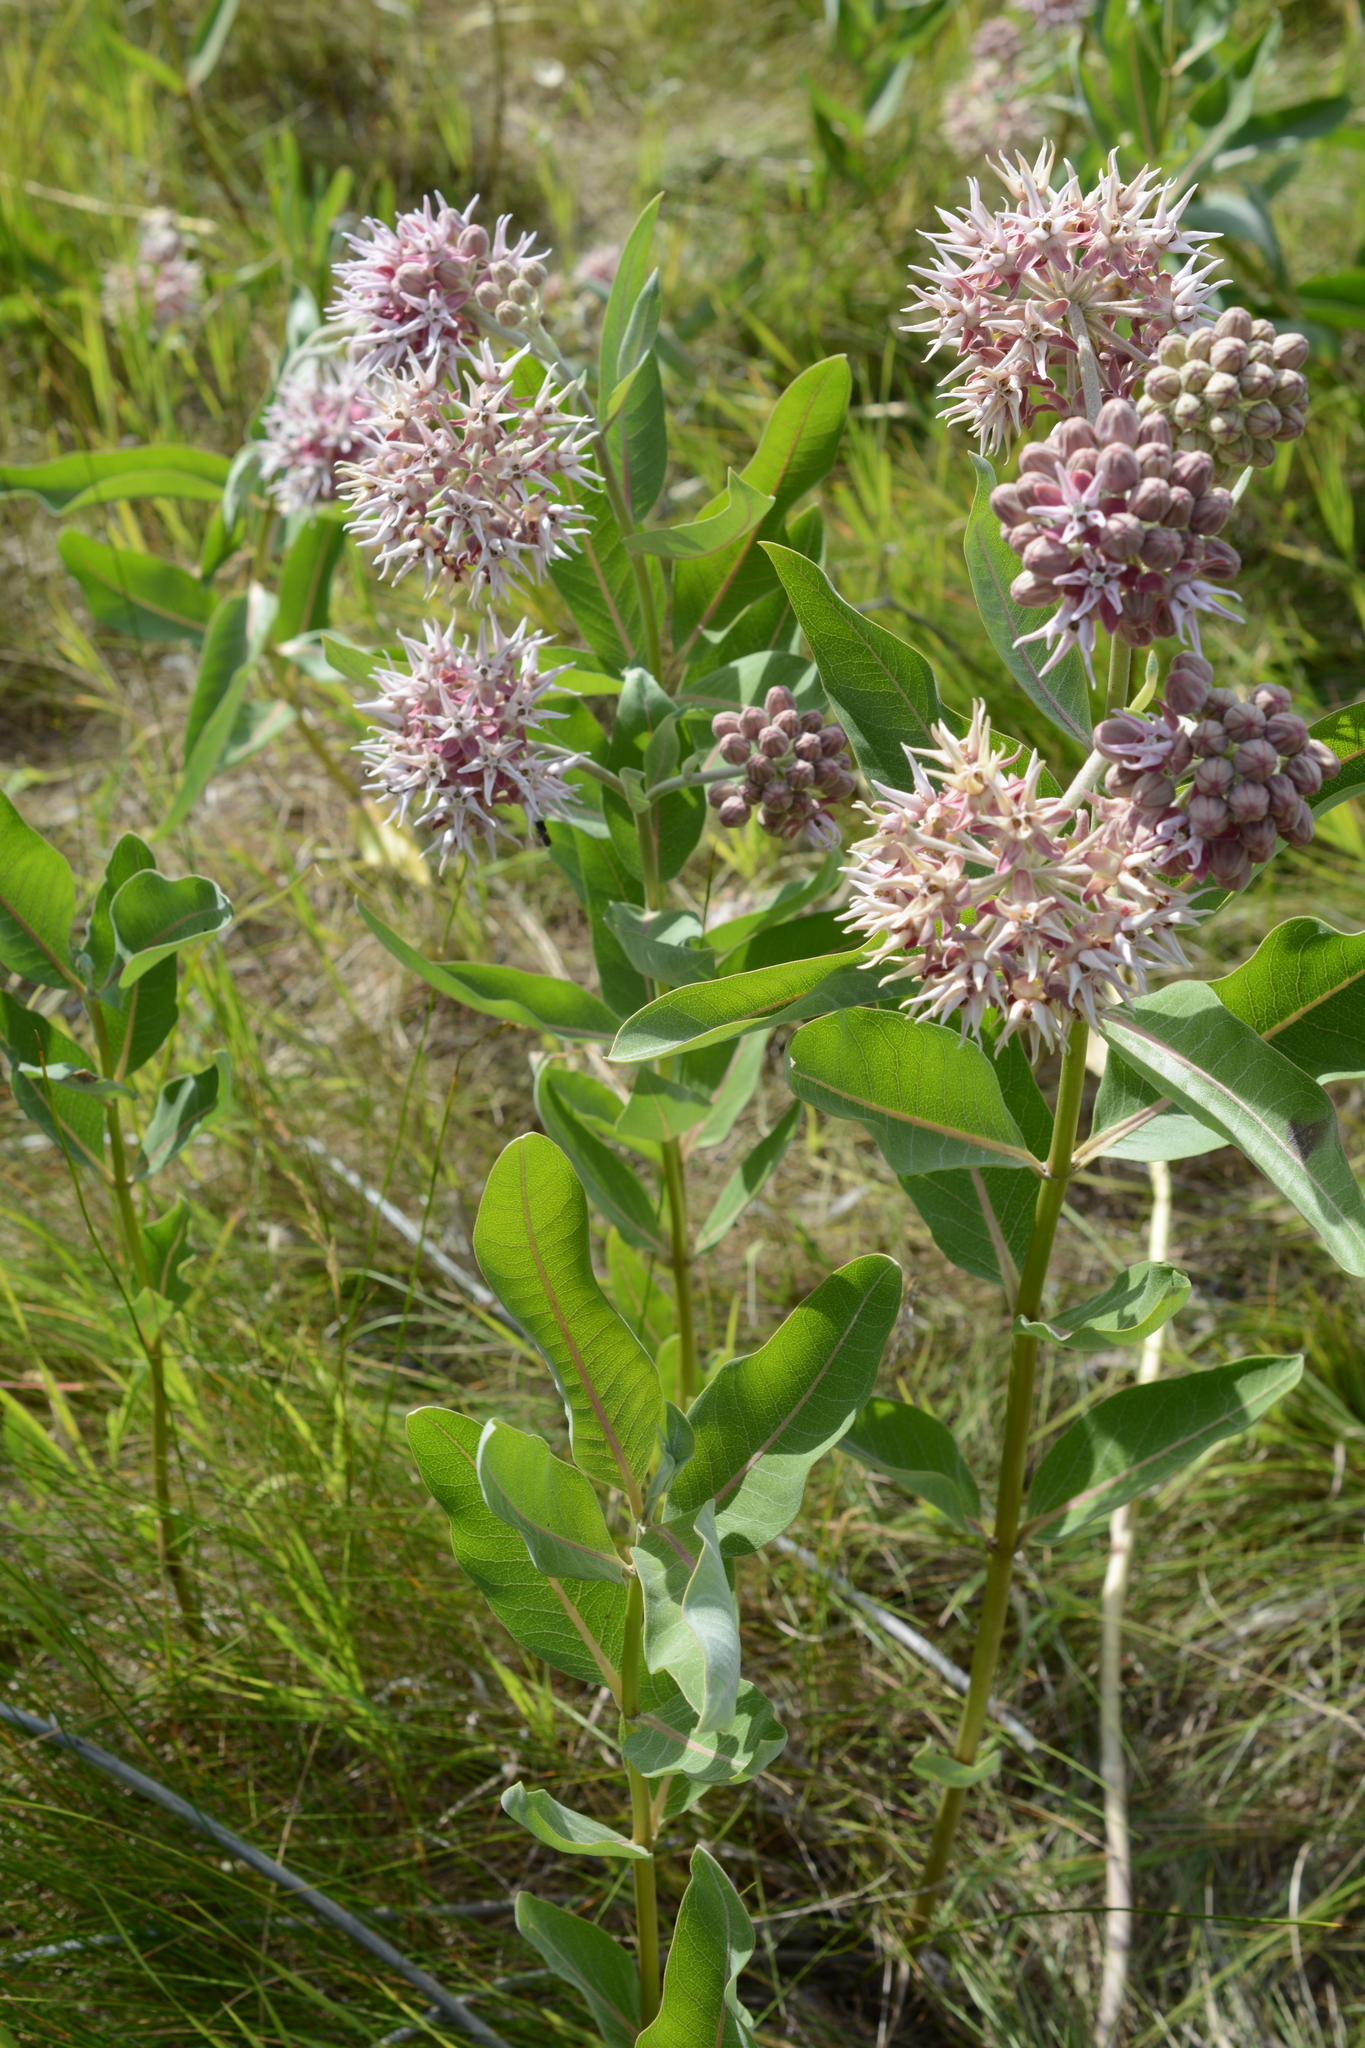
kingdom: Plantae
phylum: Tracheophyta
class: Magnoliopsida
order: Gentianales
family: Apocynaceae
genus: Asclepias
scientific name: Asclepias speciosa
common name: Showy milkweed
